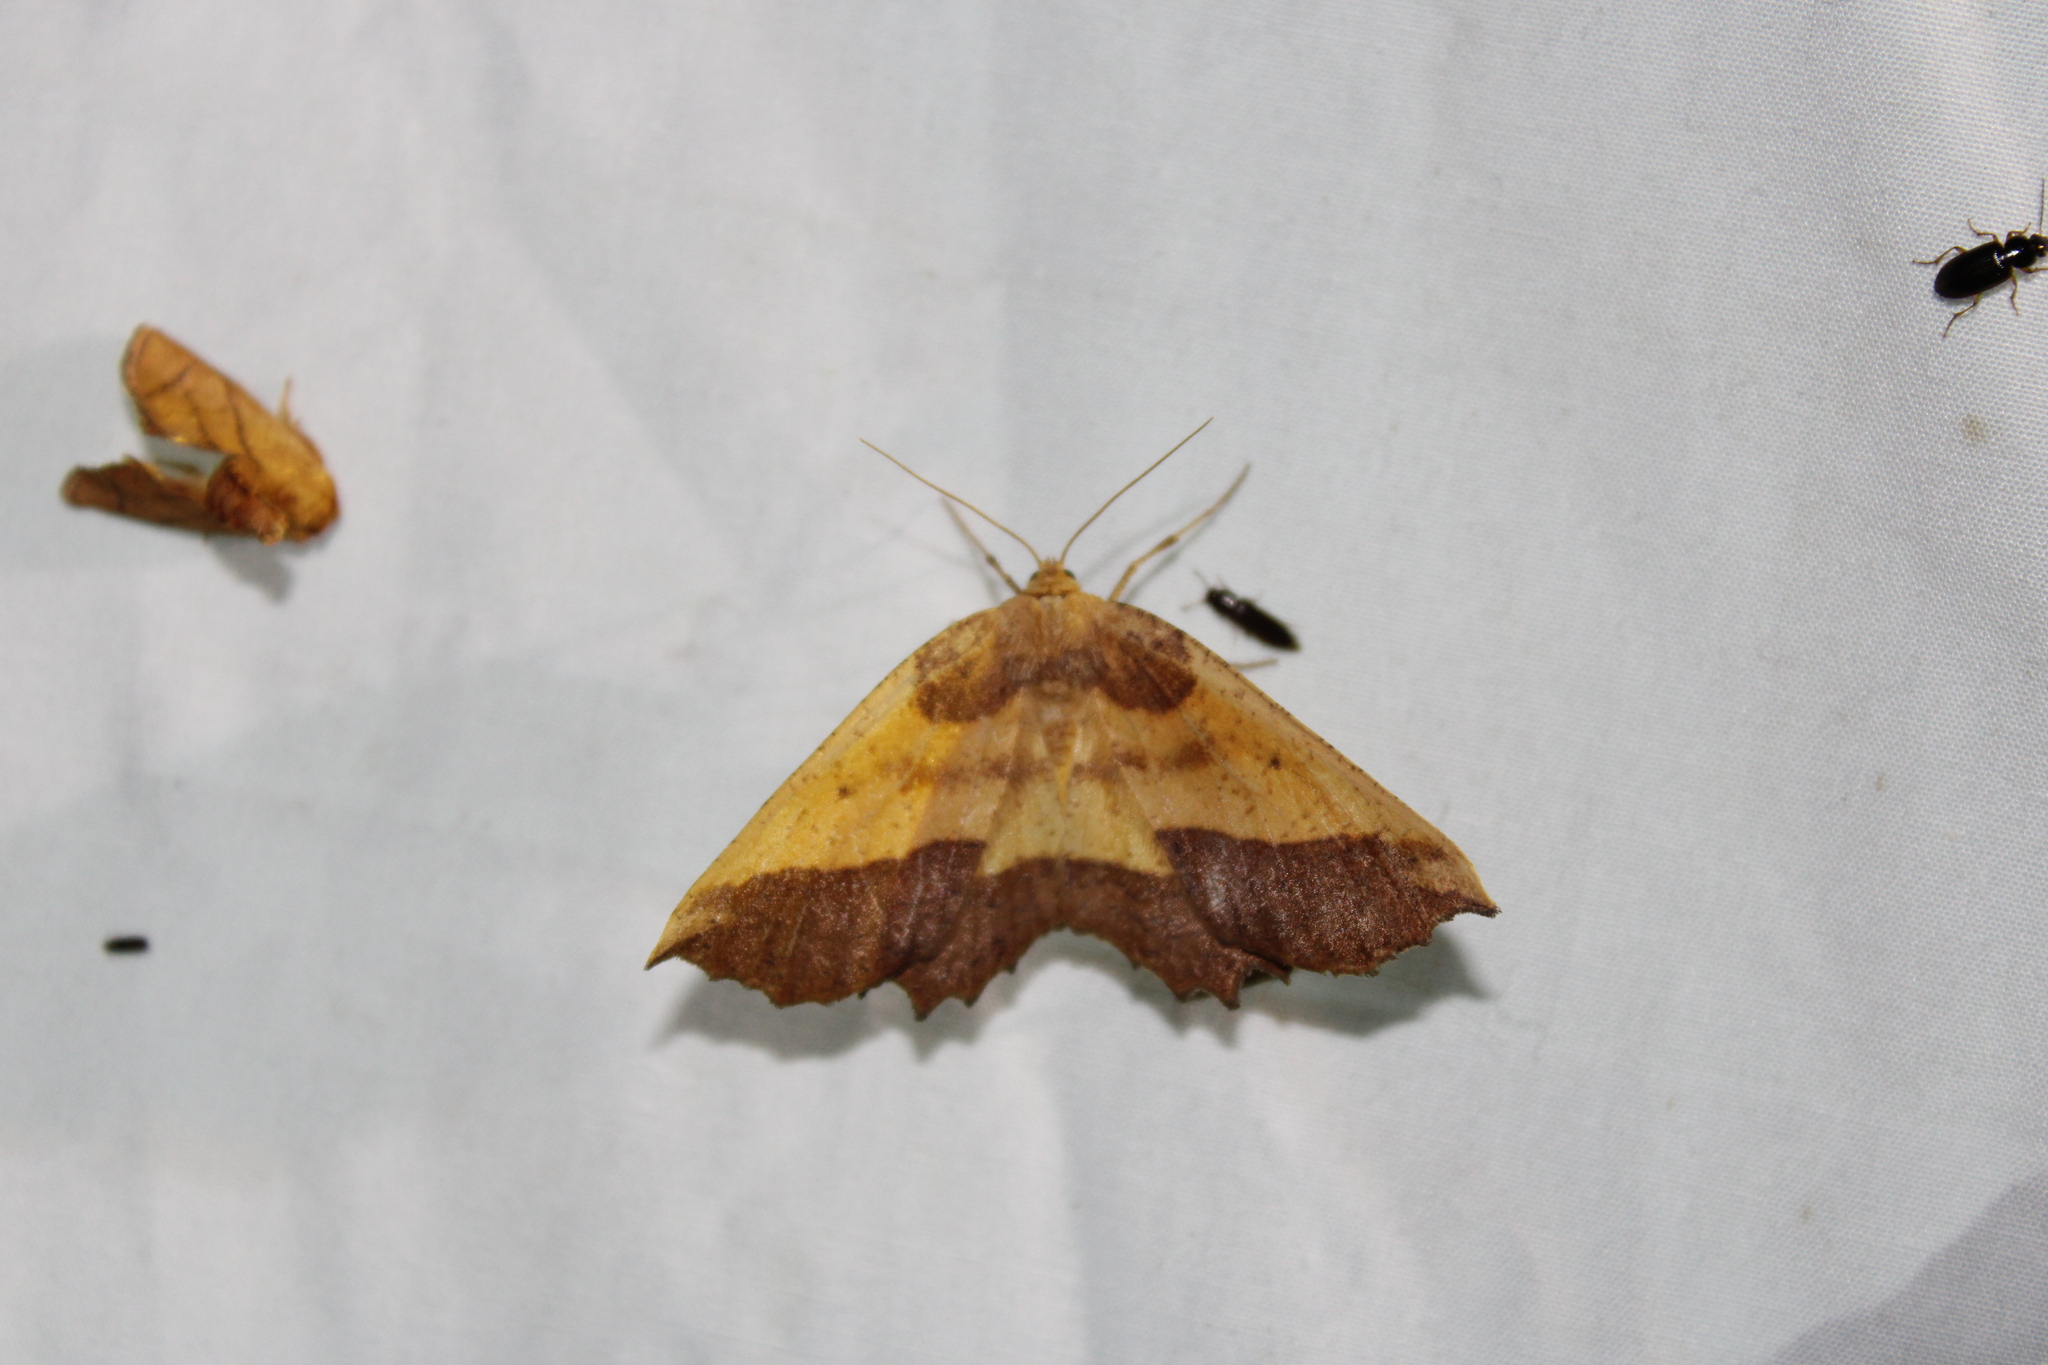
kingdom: Animalia
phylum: Arthropoda
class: Insecta
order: Lepidoptera
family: Geometridae
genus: Euchlaena
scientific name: Euchlaena serrata
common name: Saw wing
